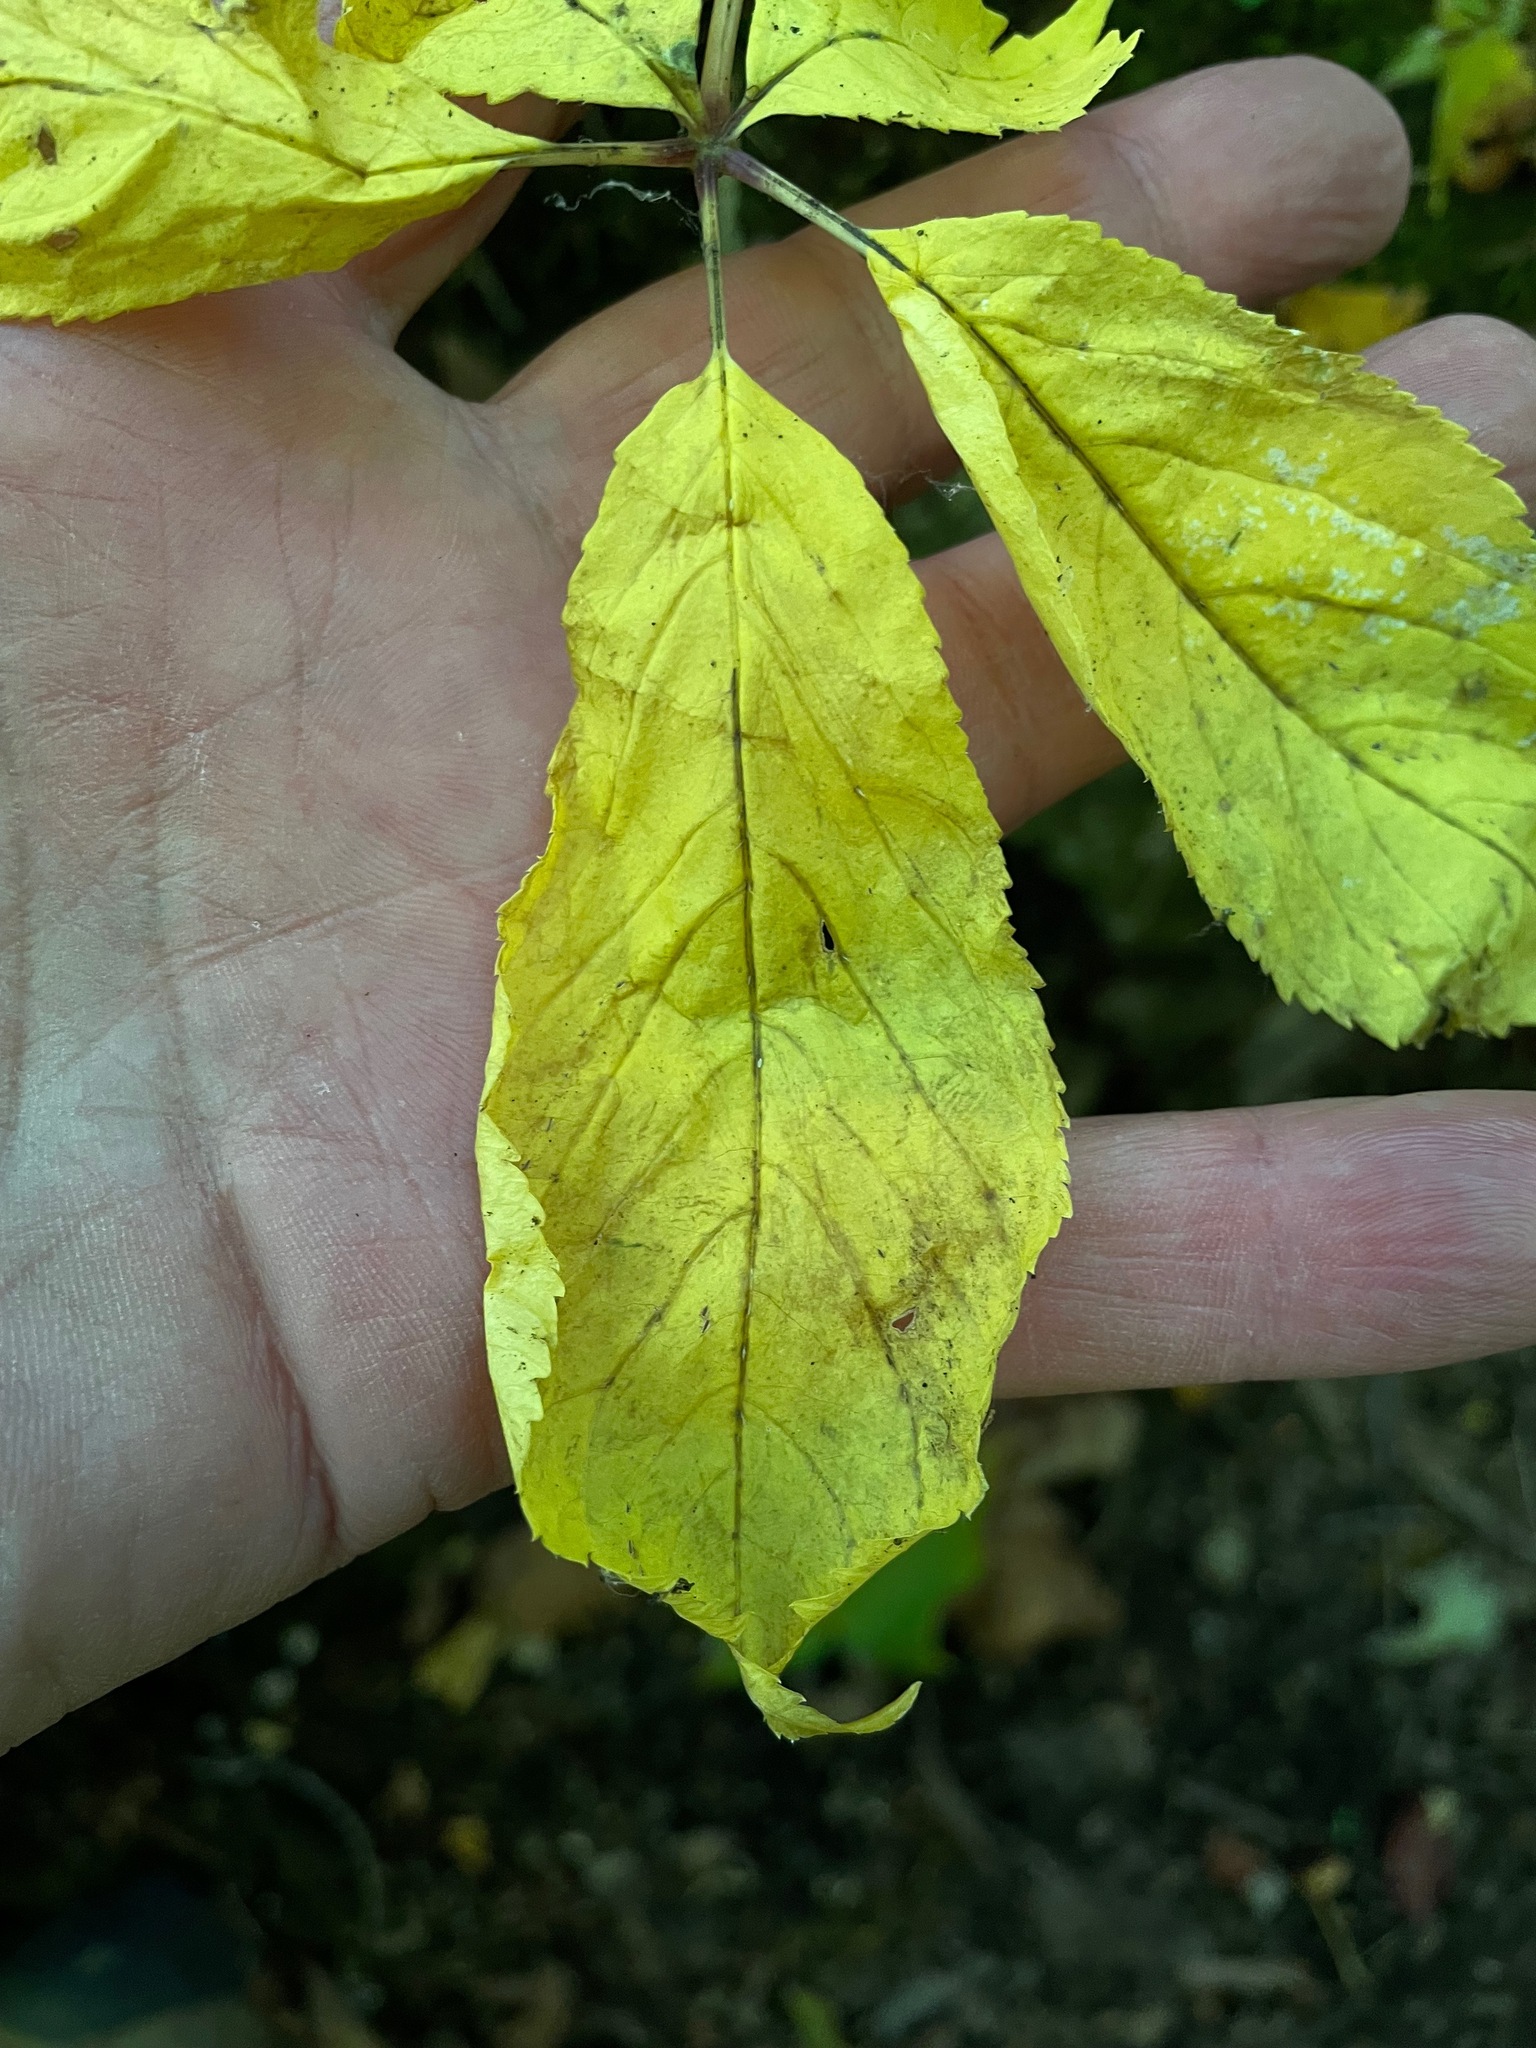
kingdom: Plantae
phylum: Tracheophyta
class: Magnoliopsida
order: Apiales
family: Araliaceae
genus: Panax
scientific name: Panax quinquefolius
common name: American ginseng
